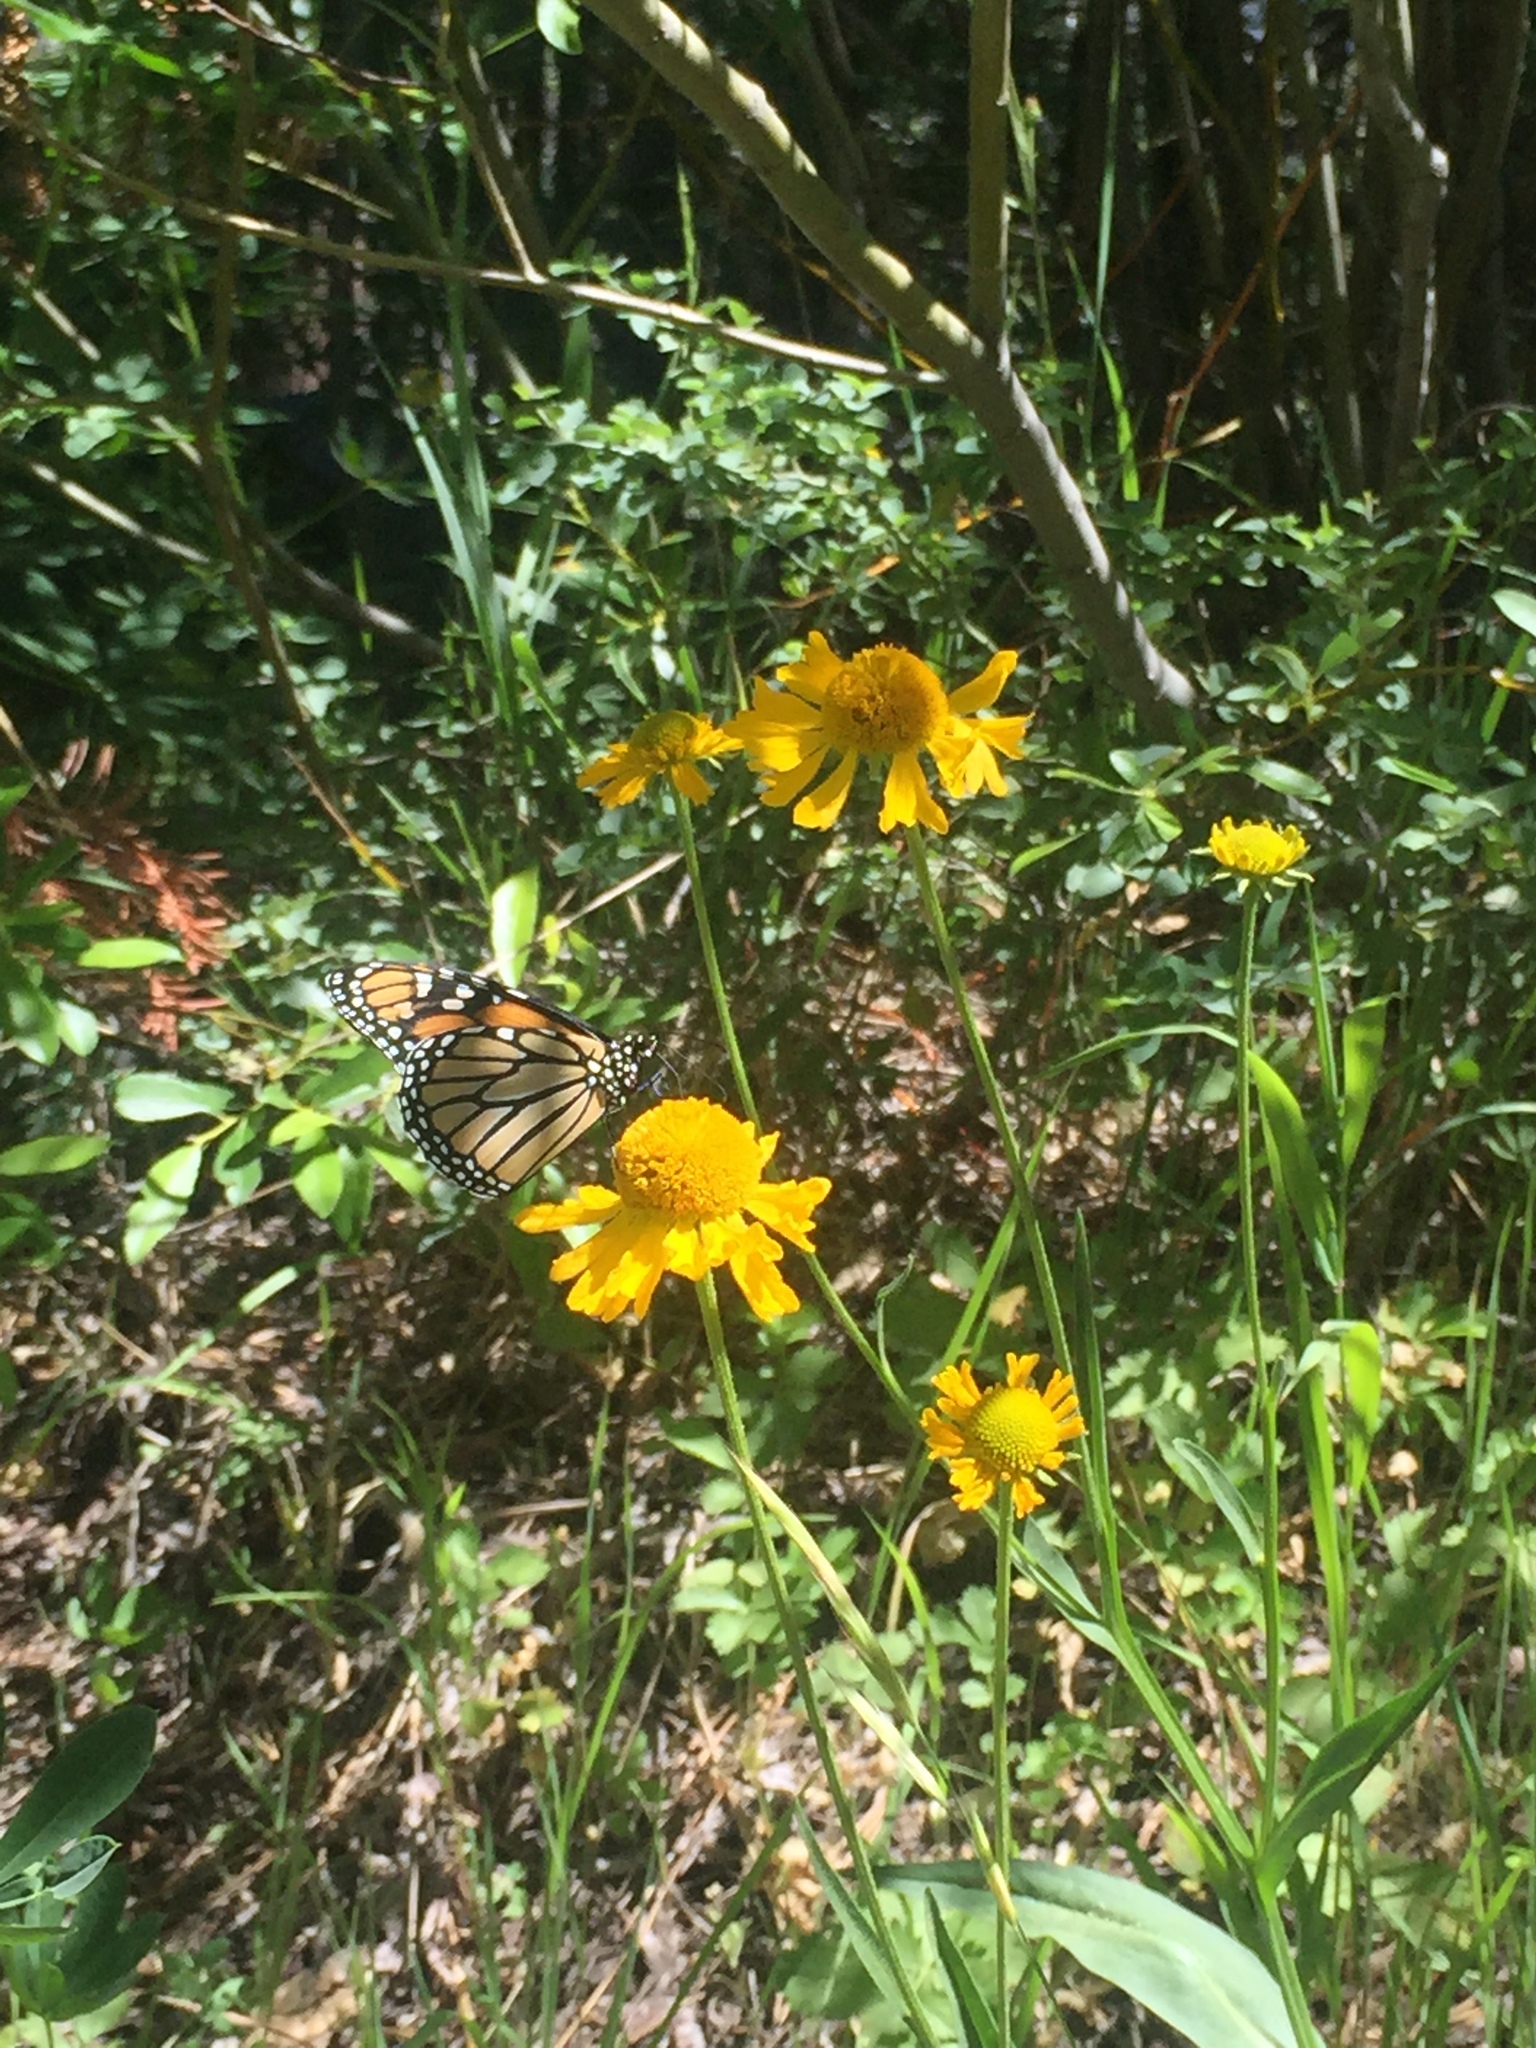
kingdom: Animalia
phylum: Arthropoda
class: Insecta
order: Lepidoptera
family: Nymphalidae
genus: Danaus
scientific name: Danaus plexippus
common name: Monarch
